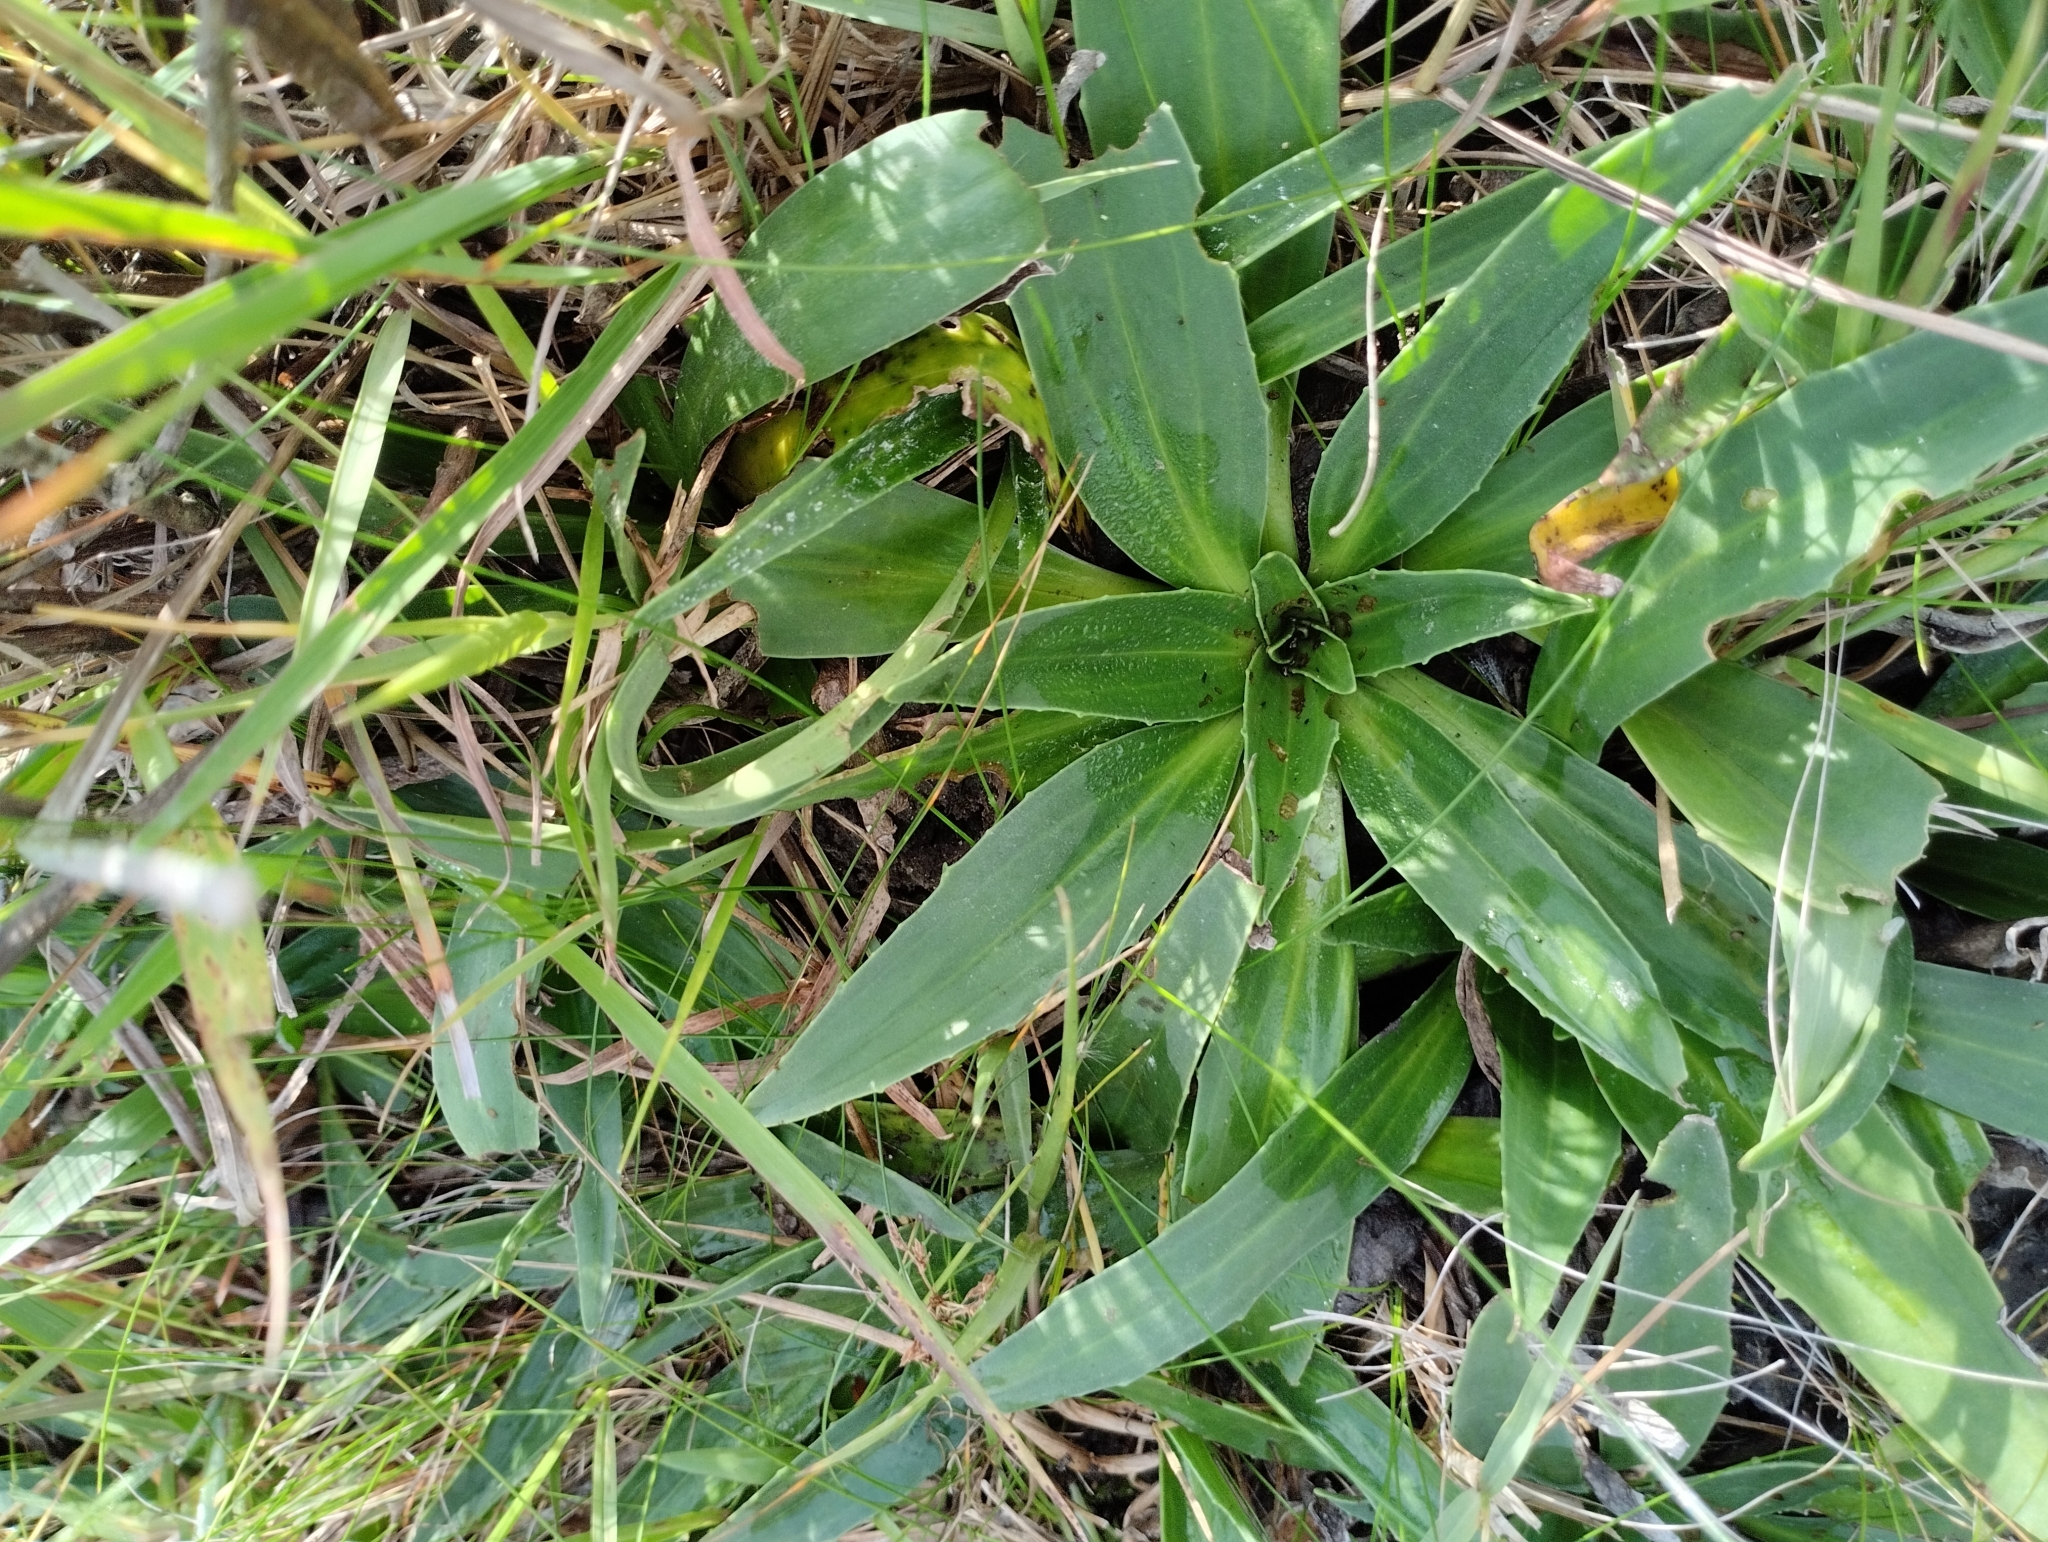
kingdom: Plantae
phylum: Tracheophyta
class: Magnoliopsida
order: Apiales
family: Apiaceae
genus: Eryngium
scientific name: Eryngium sanguisorba
